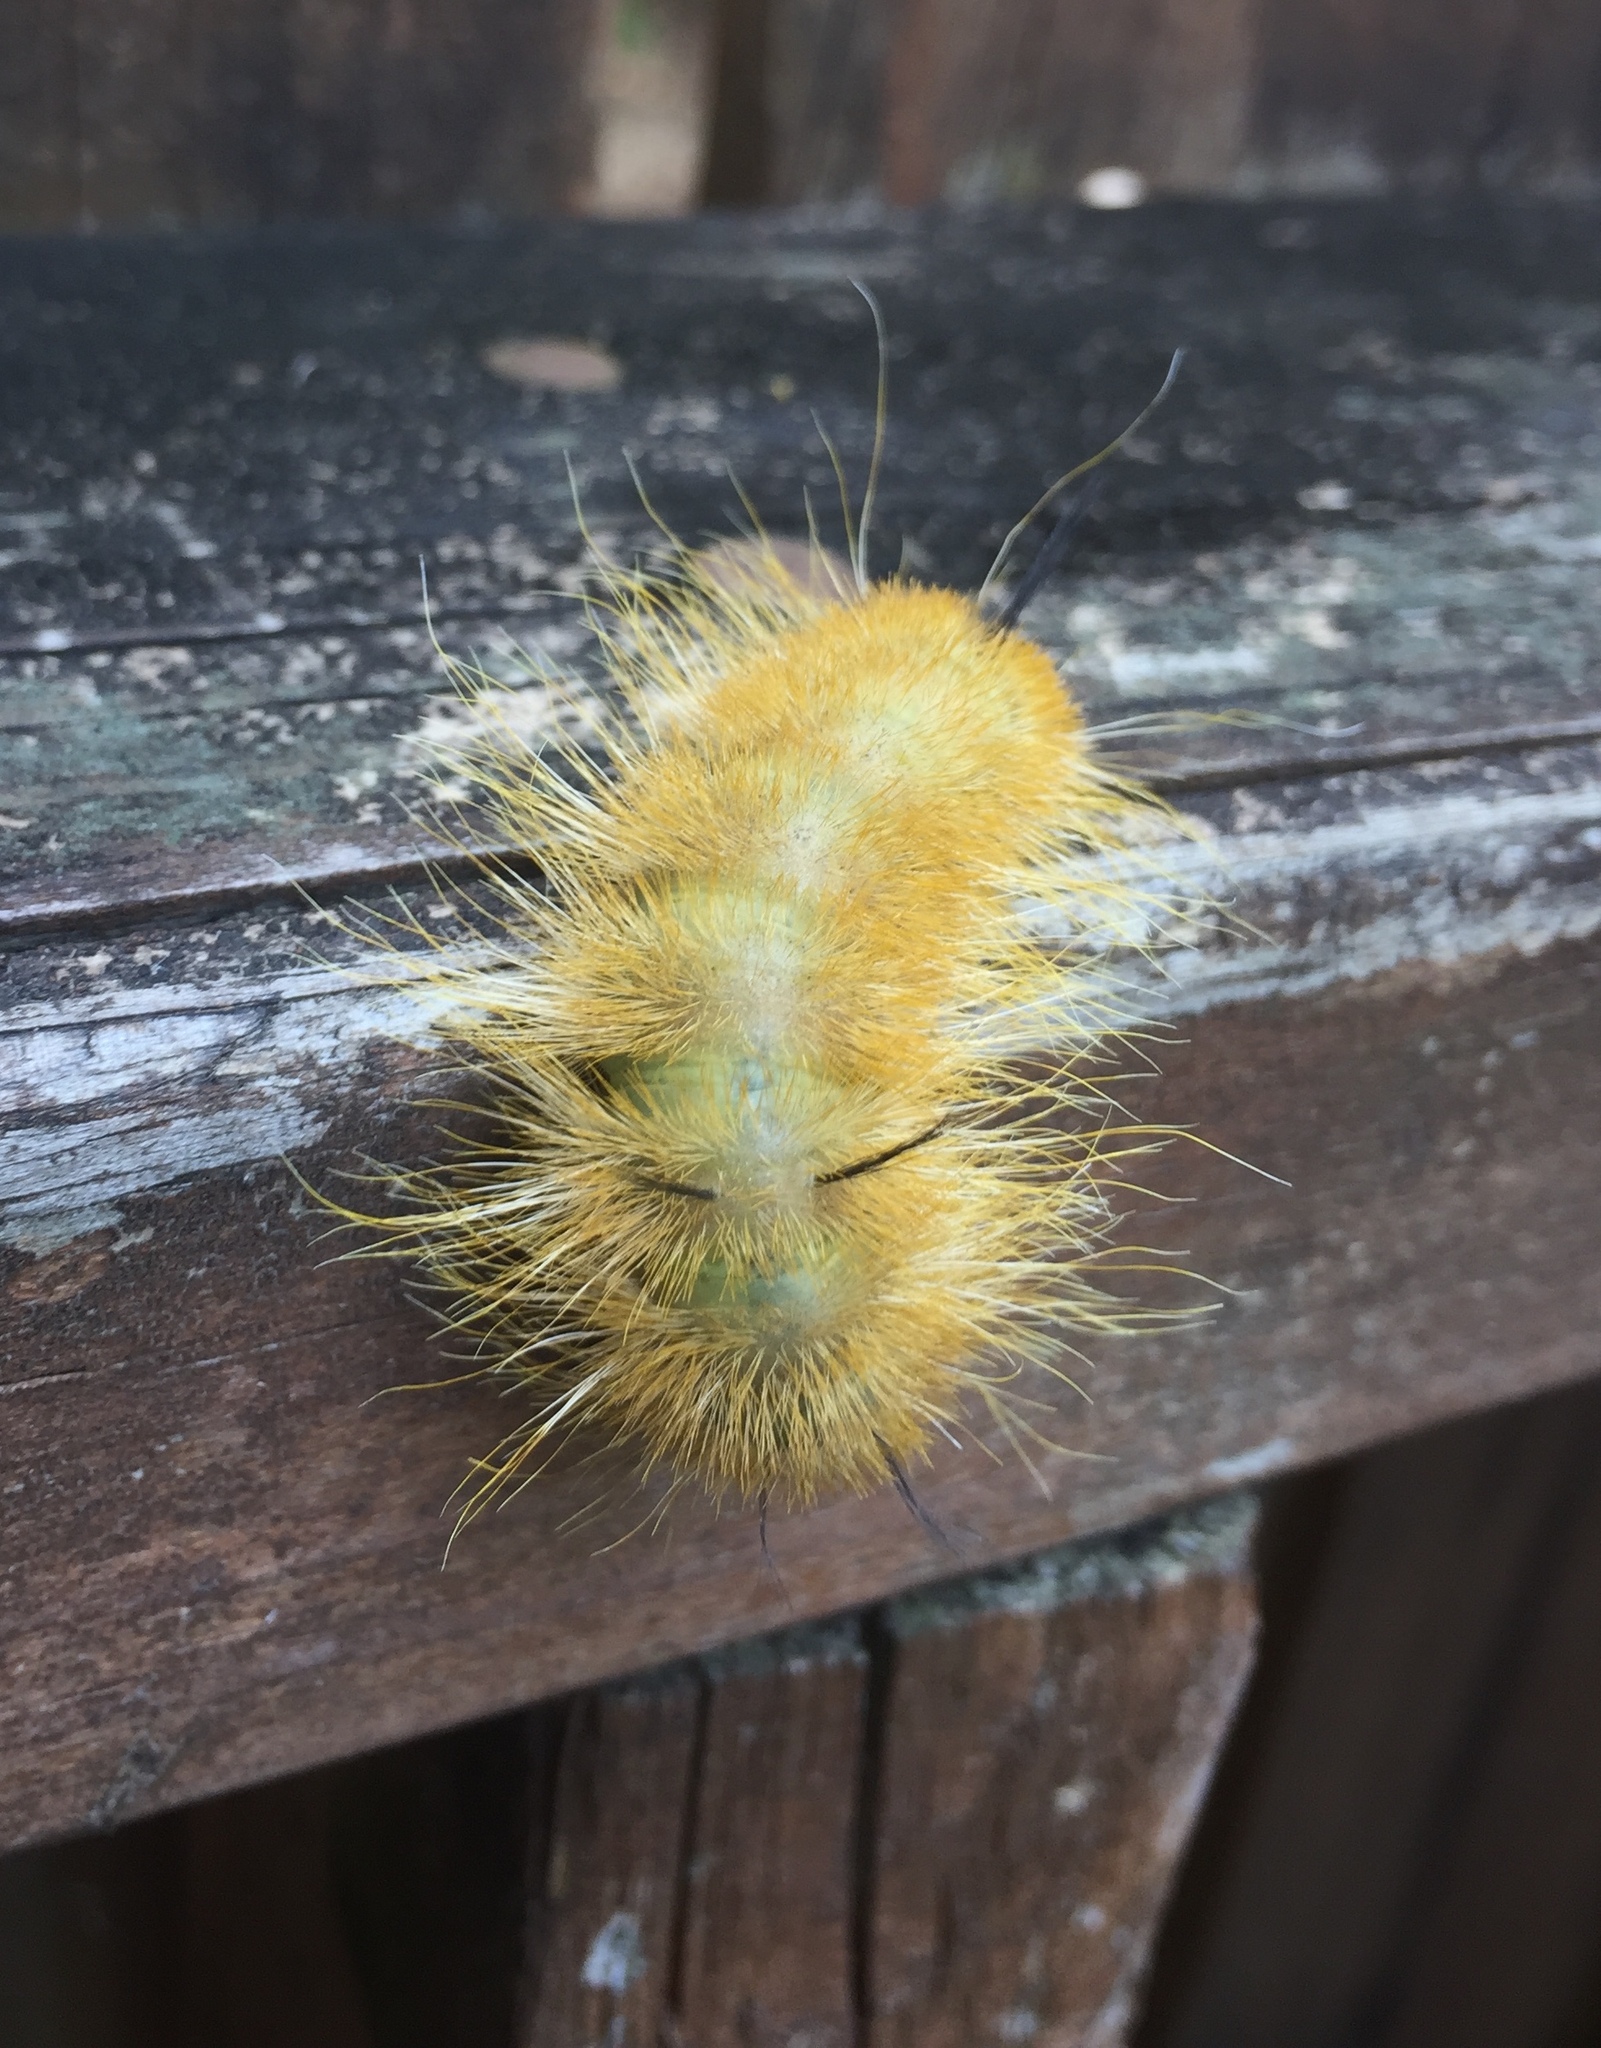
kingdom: Animalia
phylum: Arthropoda
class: Insecta
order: Lepidoptera
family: Noctuidae
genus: Acronicta
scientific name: Acronicta americana
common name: American dagger
